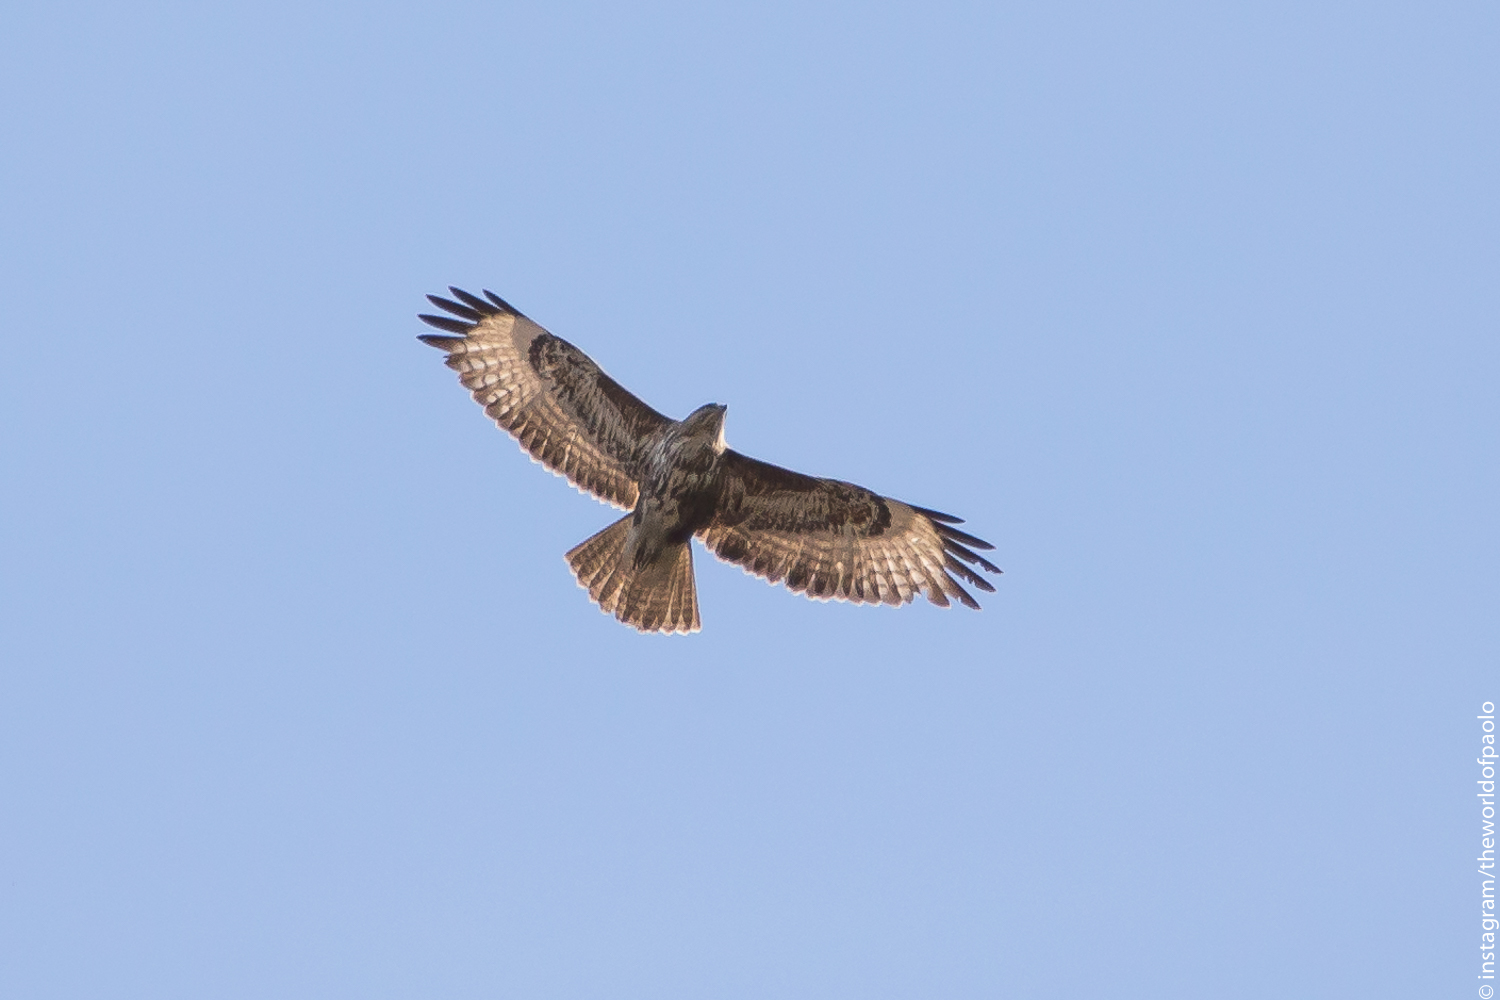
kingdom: Animalia
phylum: Chordata
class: Aves
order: Accipitriformes
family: Accipitridae
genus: Buteo
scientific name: Buteo buteo
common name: Common buzzard
